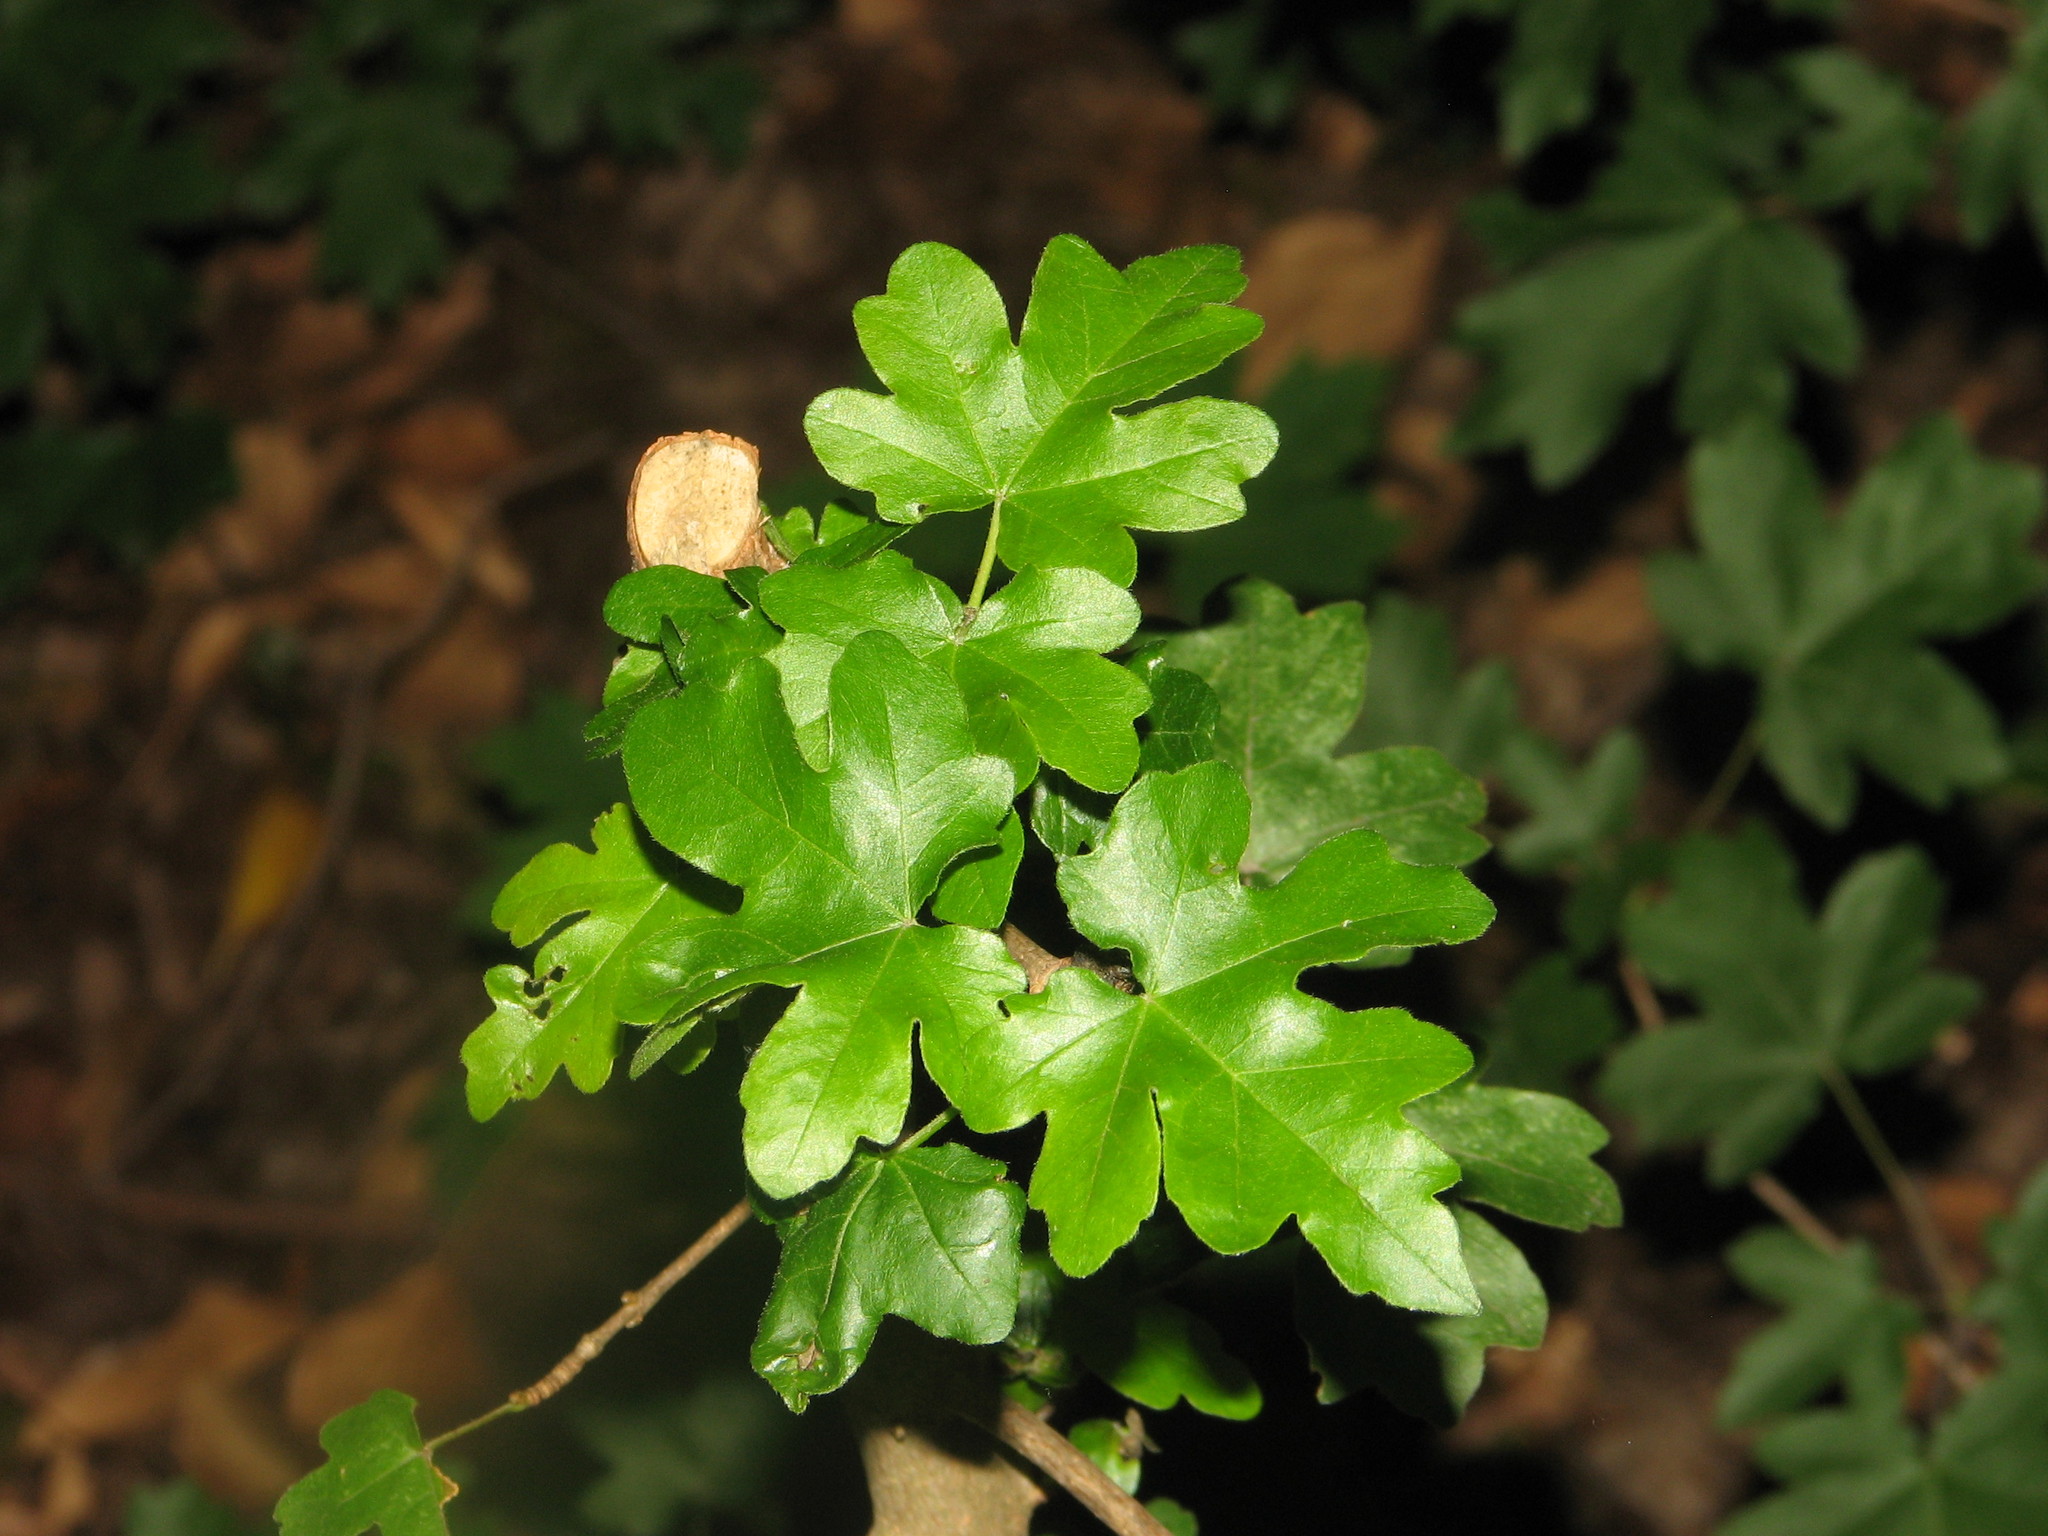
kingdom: Plantae
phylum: Tracheophyta
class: Magnoliopsida
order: Sapindales
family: Sapindaceae
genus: Acer
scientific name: Acer campestre
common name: Field maple
